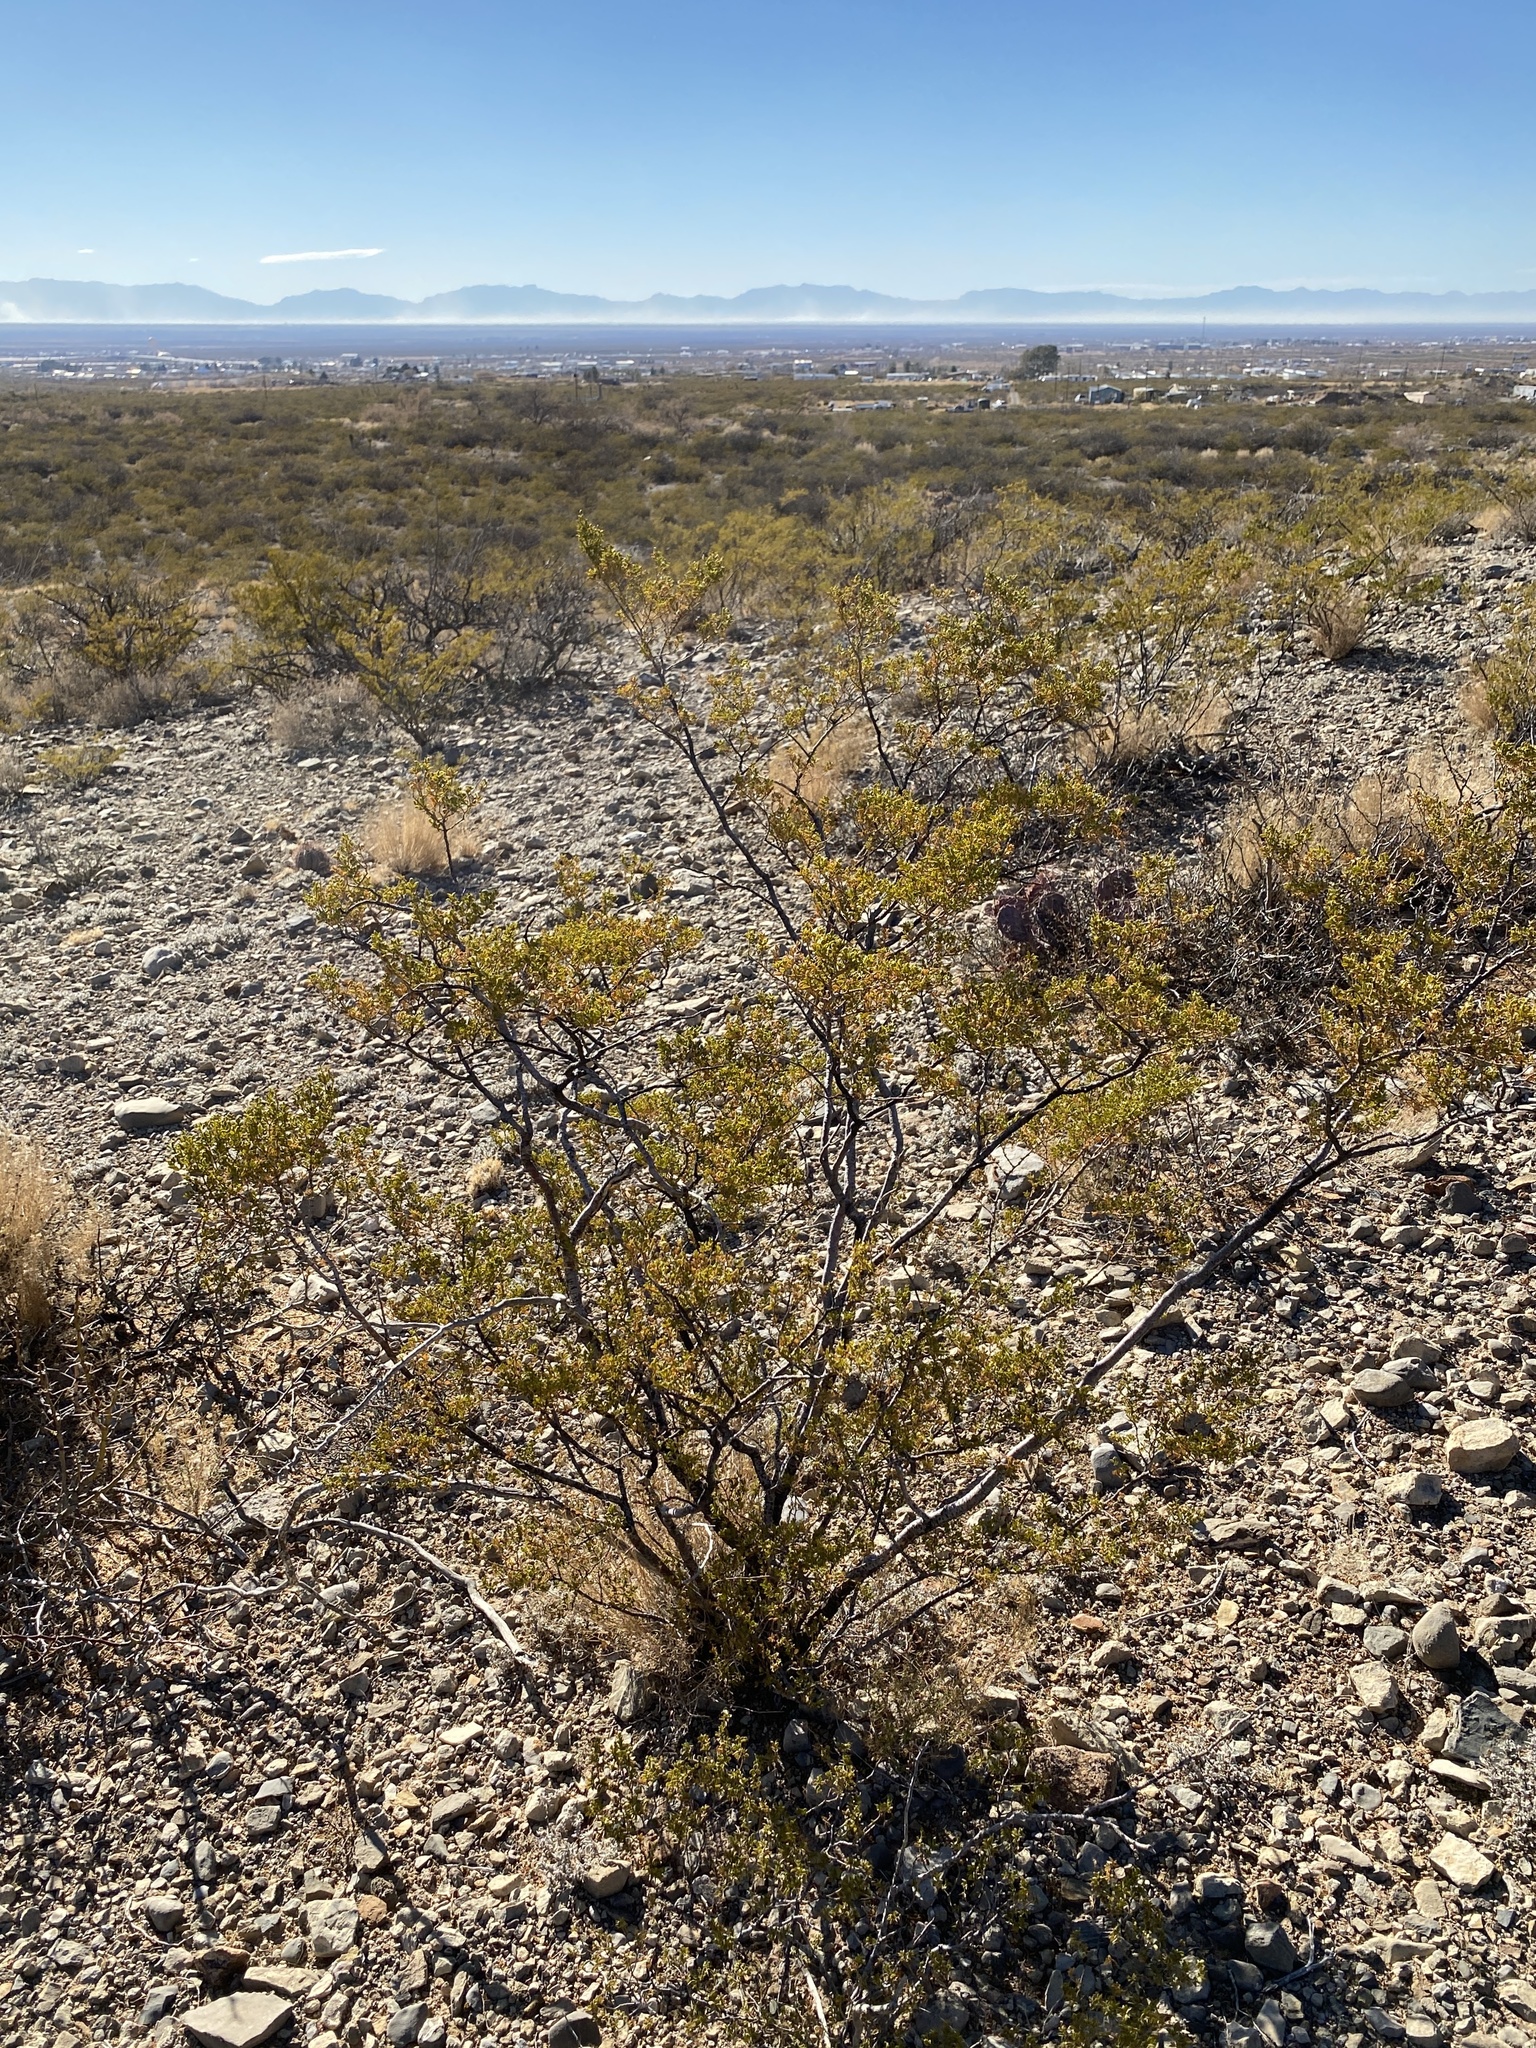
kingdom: Plantae
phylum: Tracheophyta
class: Magnoliopsida
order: Zygophyllales
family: Zygophyllaceae
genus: Larrea
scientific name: Larrea tridentata
